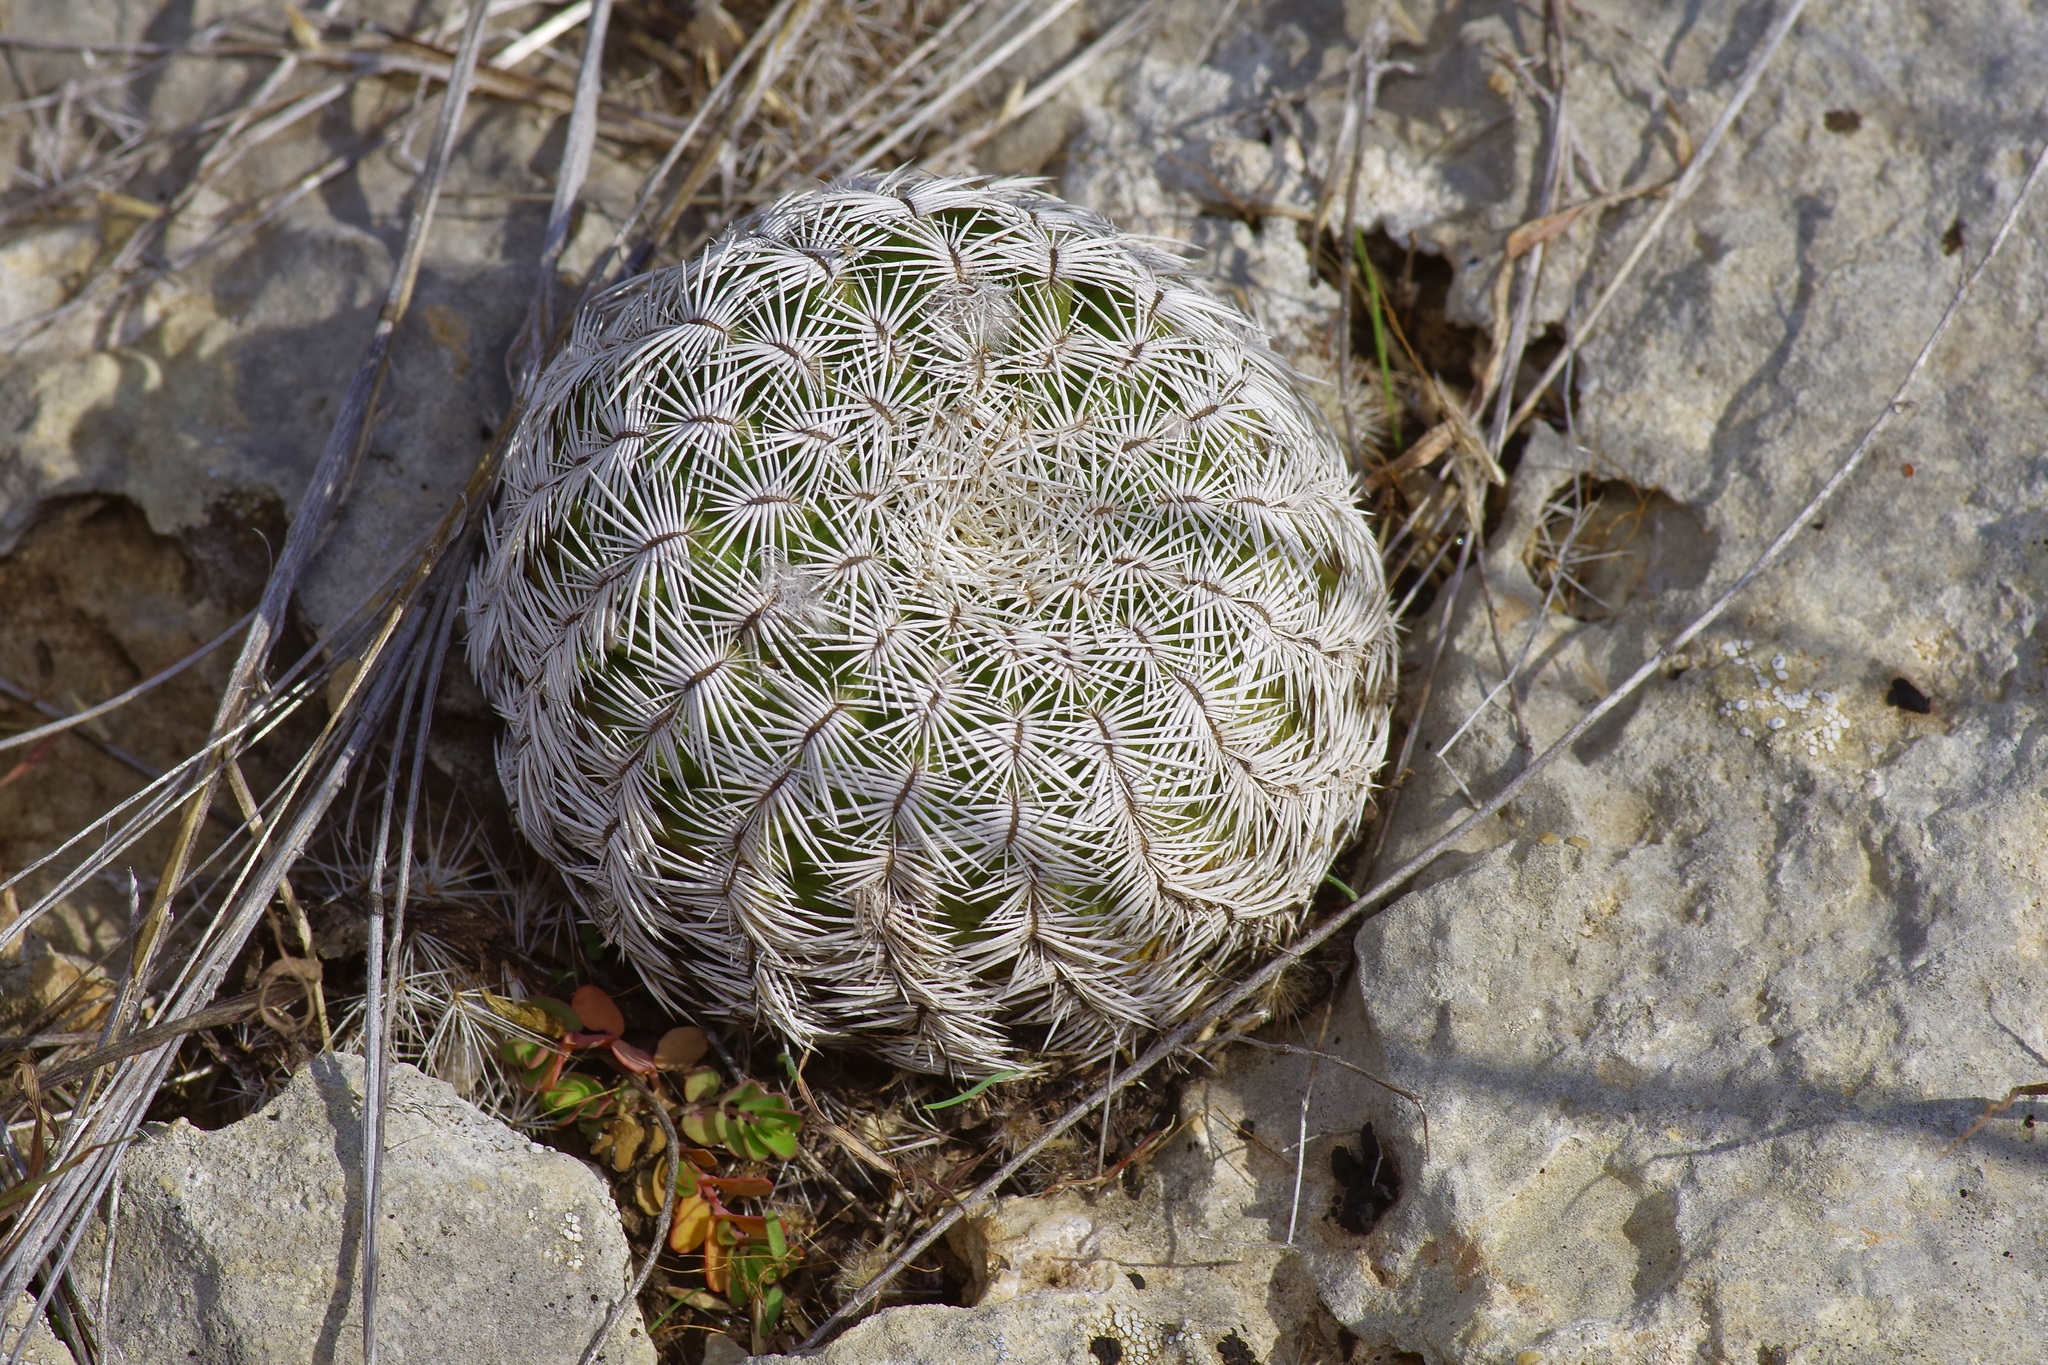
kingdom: Plantae
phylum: Tracheophyta
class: Magnoliopsida
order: Caryophyllales
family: Cactaceae
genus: Echinocereus
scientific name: Echinocereus reichenbachii
